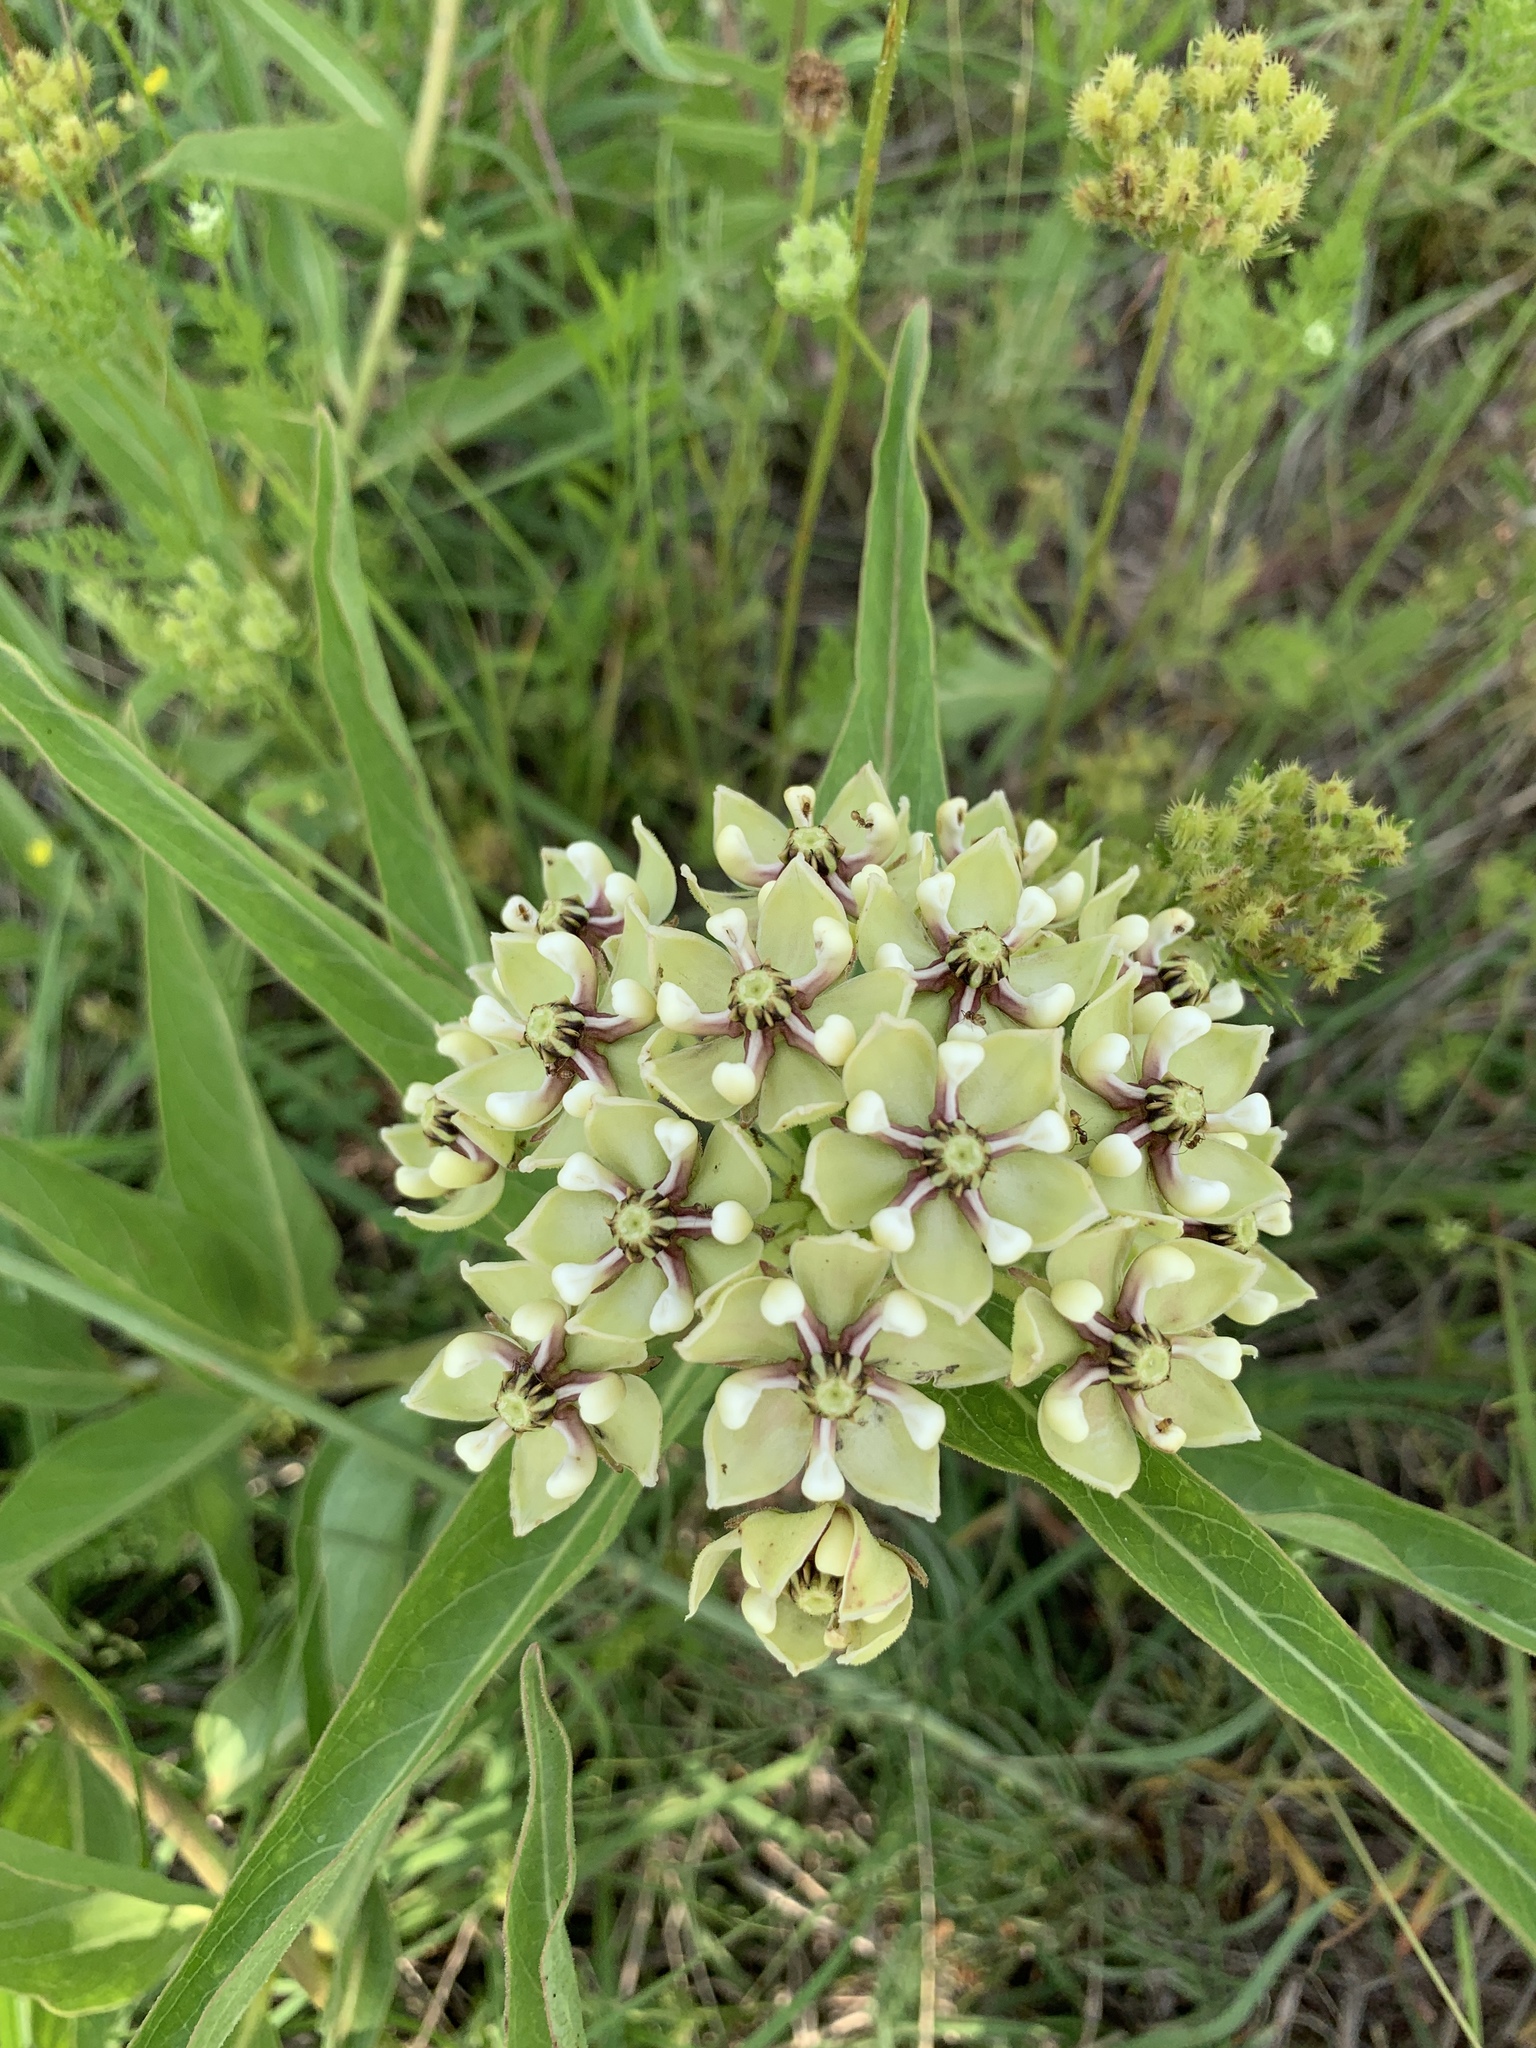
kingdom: Plantae
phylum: Tracheophyta
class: Magnoliopsida
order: Gentianales
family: Apocynaceae
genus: Asclepias
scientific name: Asclepias asperula
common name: Antelope horns
